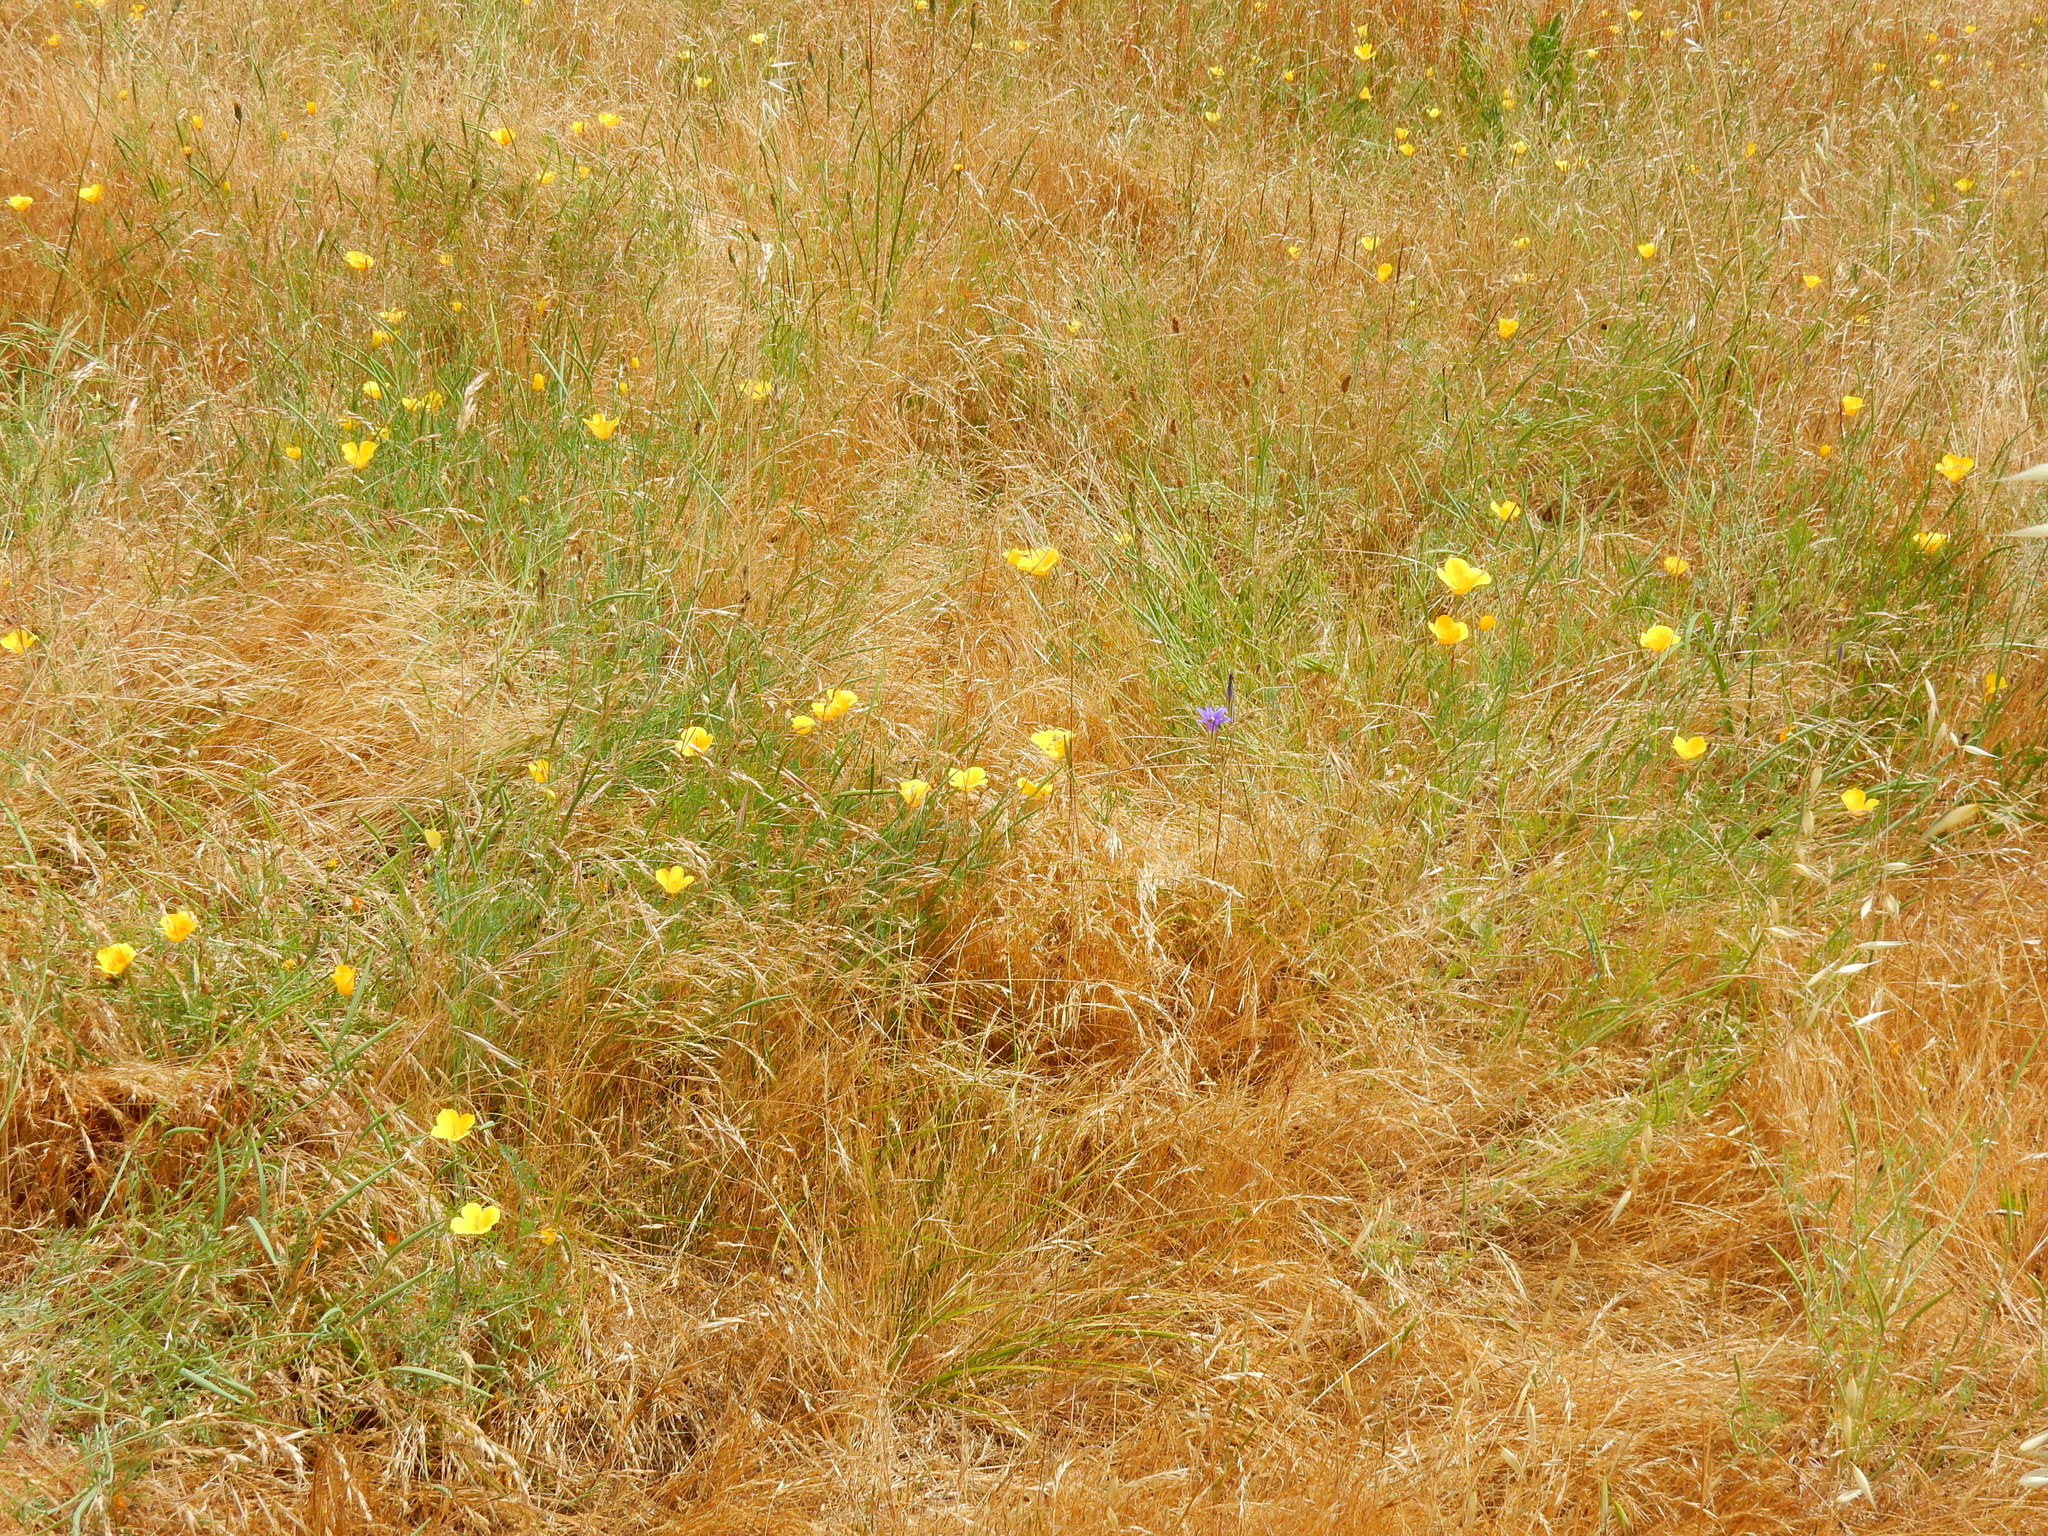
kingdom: Plantae
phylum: Tracheophyta
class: Magnoliopsida
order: Ranunculales
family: Papaveraceae
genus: Eschscholzia
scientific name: Eschscholzia californica
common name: California poppy
